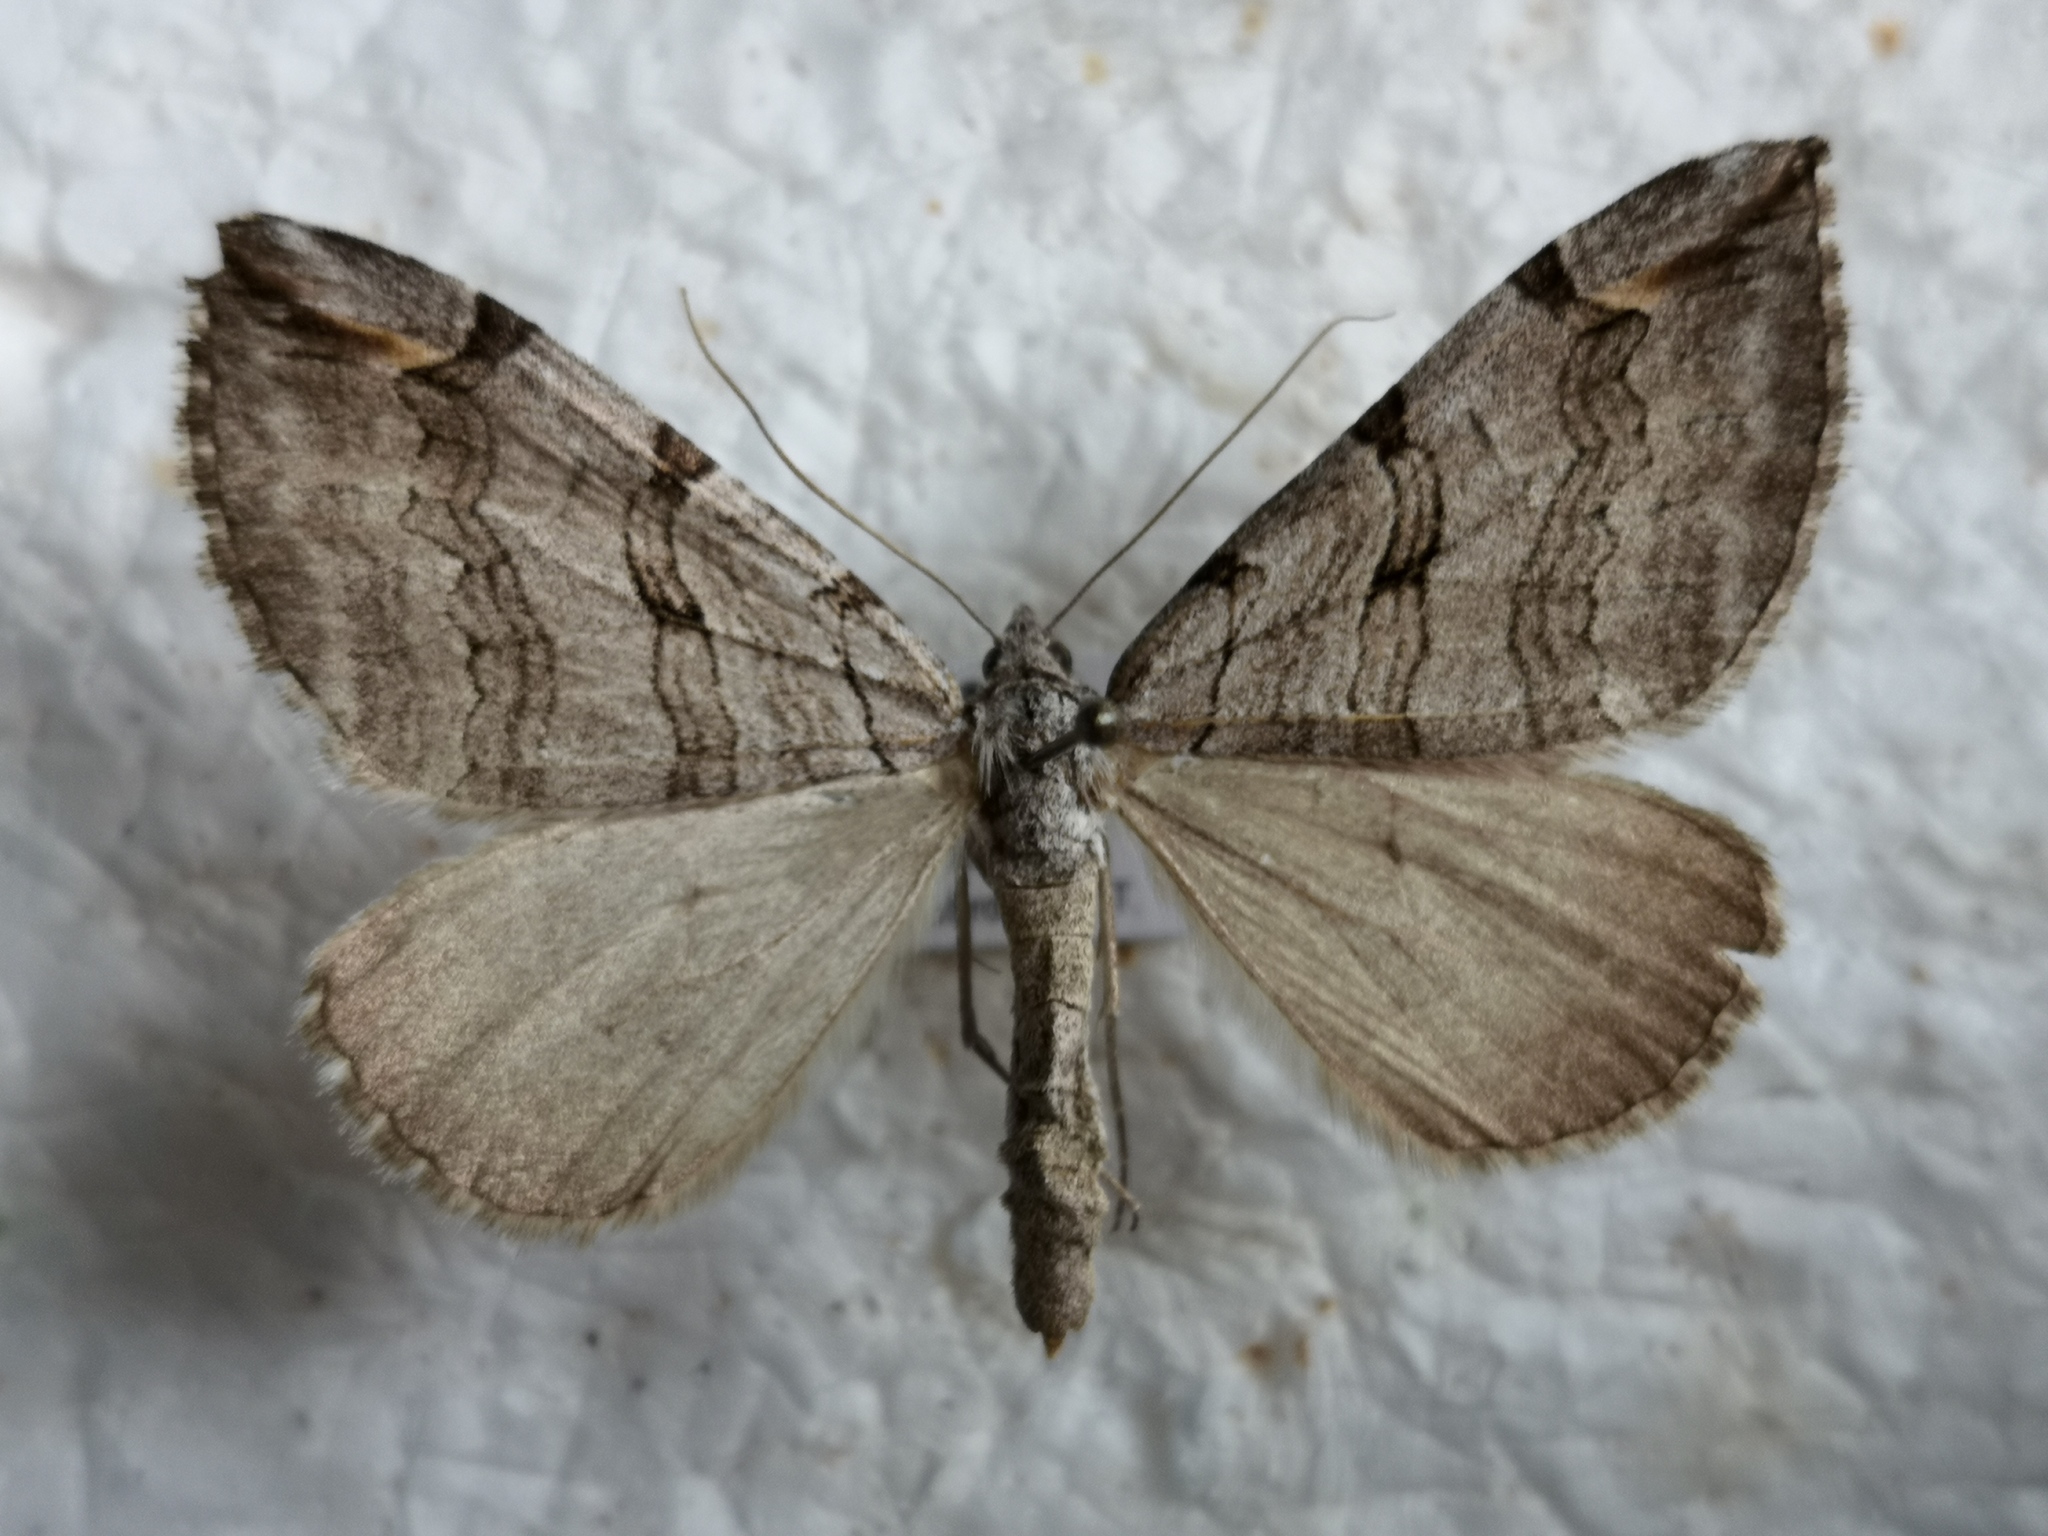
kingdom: Animalia
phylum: Arthropoda
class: Insecta
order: Lepidoptera
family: Geometridae
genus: Aplocera
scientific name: Aplocera plagiata
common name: Treble-bar
